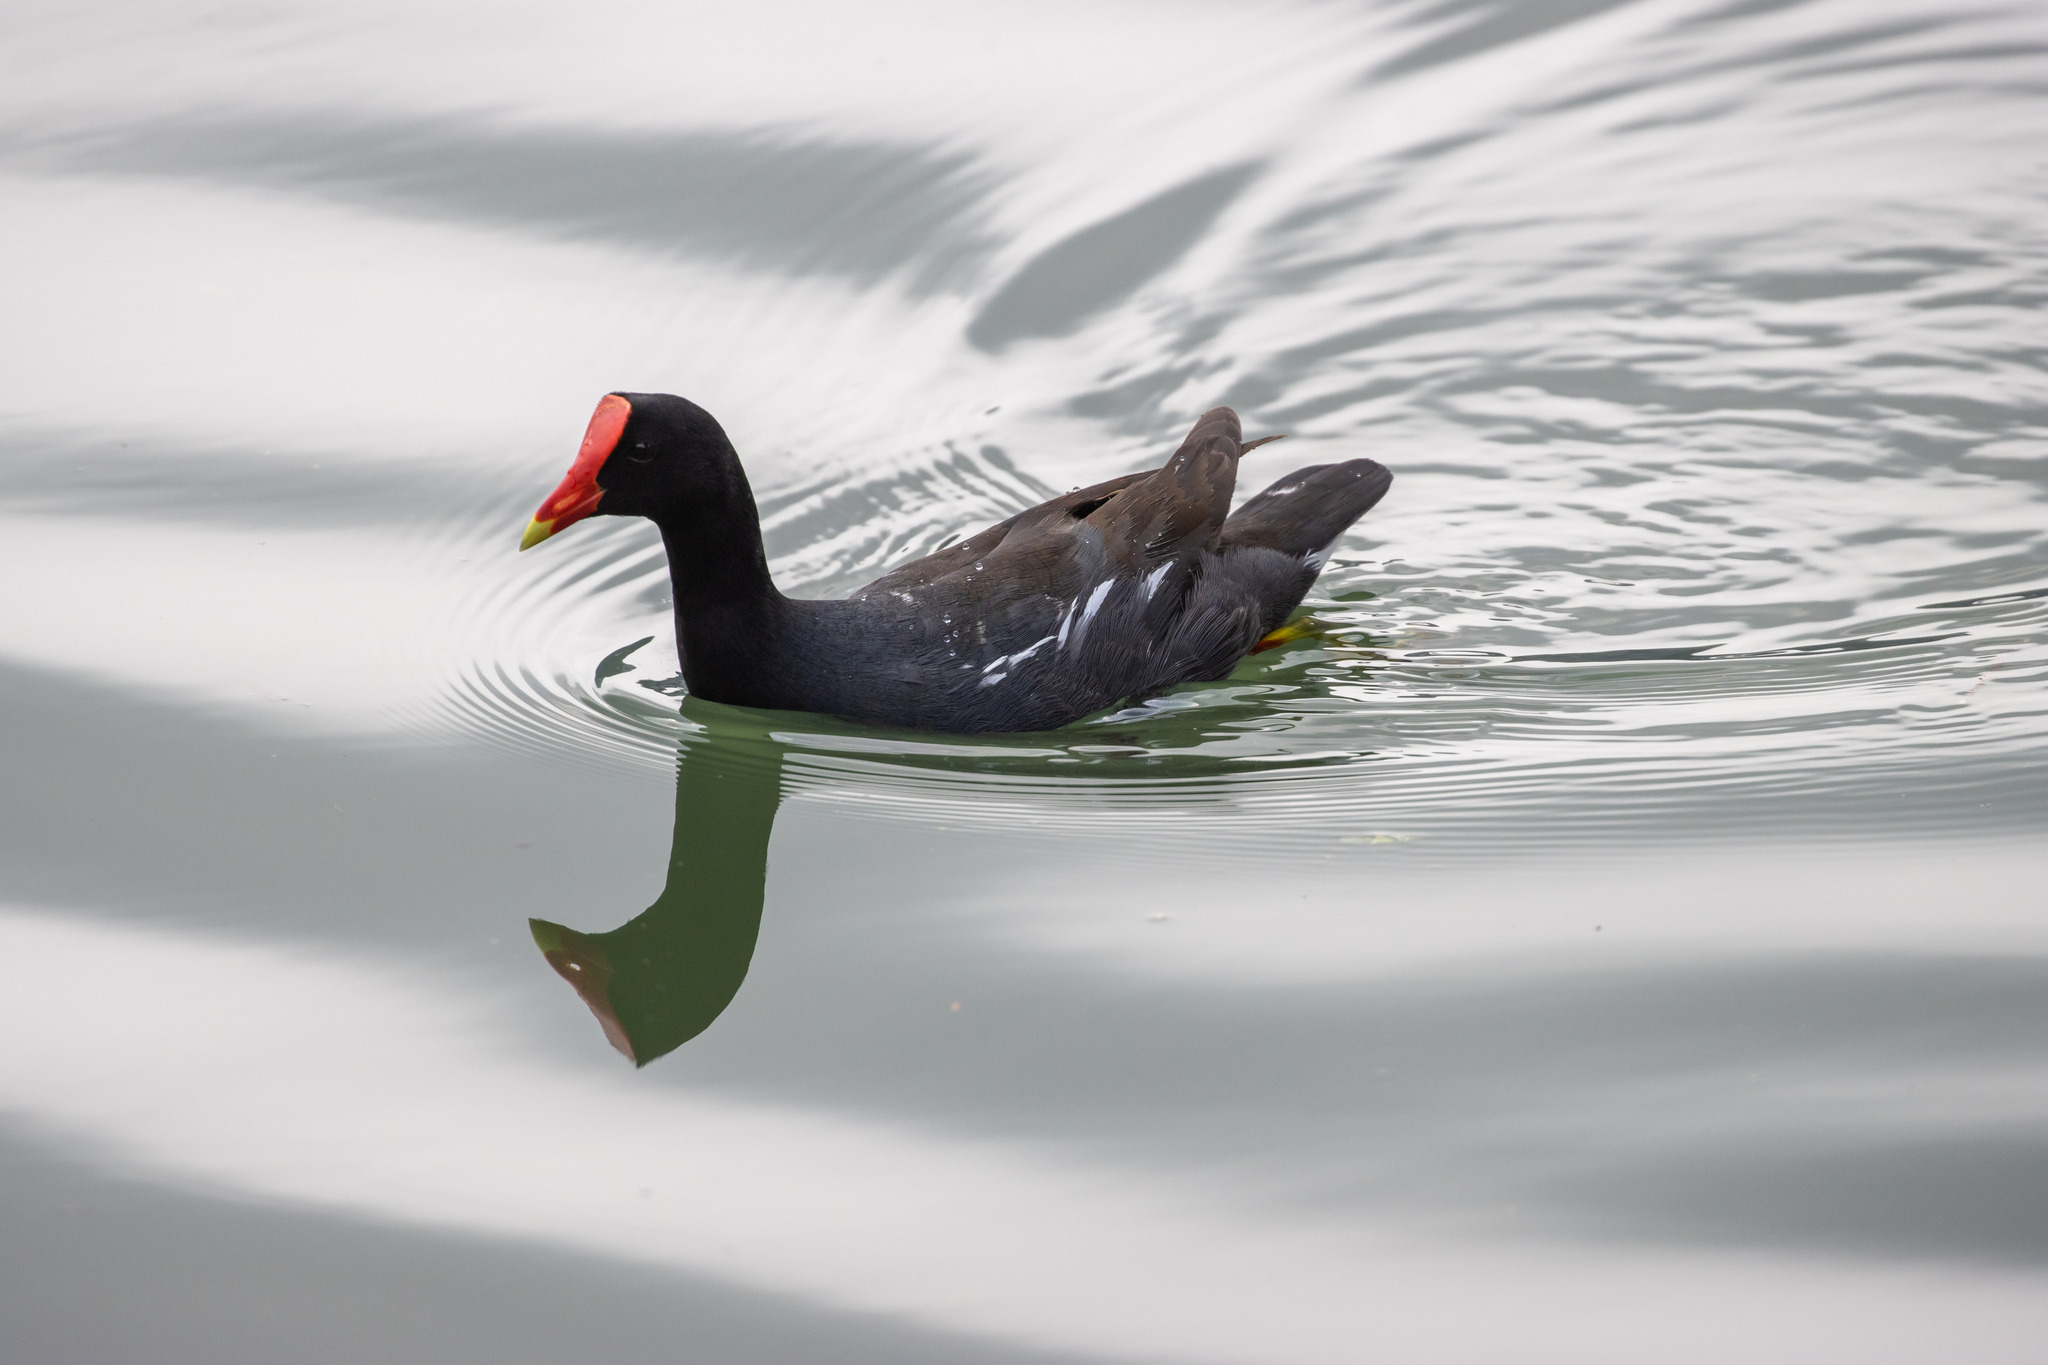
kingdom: Animalia
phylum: Chordata
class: Aves
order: Gruiformes
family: Rallidae
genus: Gallinula
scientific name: Gallinula chloropus
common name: Common moorhen
